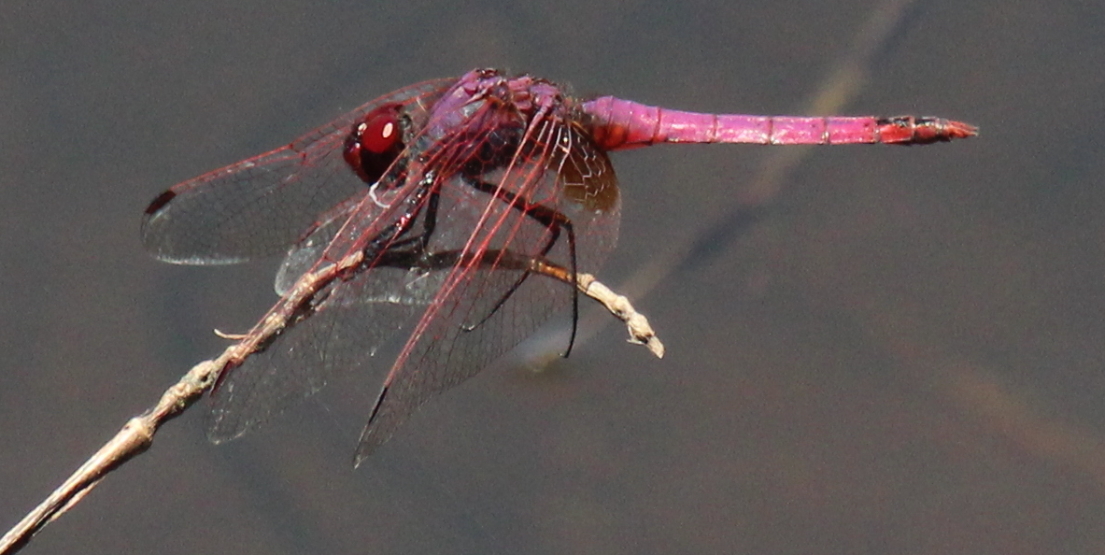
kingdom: Animalia
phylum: Arthropoda
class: Insecta
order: Odonata
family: Libellulidae
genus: Trithemis
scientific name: Trithemis annulata
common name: Violet dropwing
